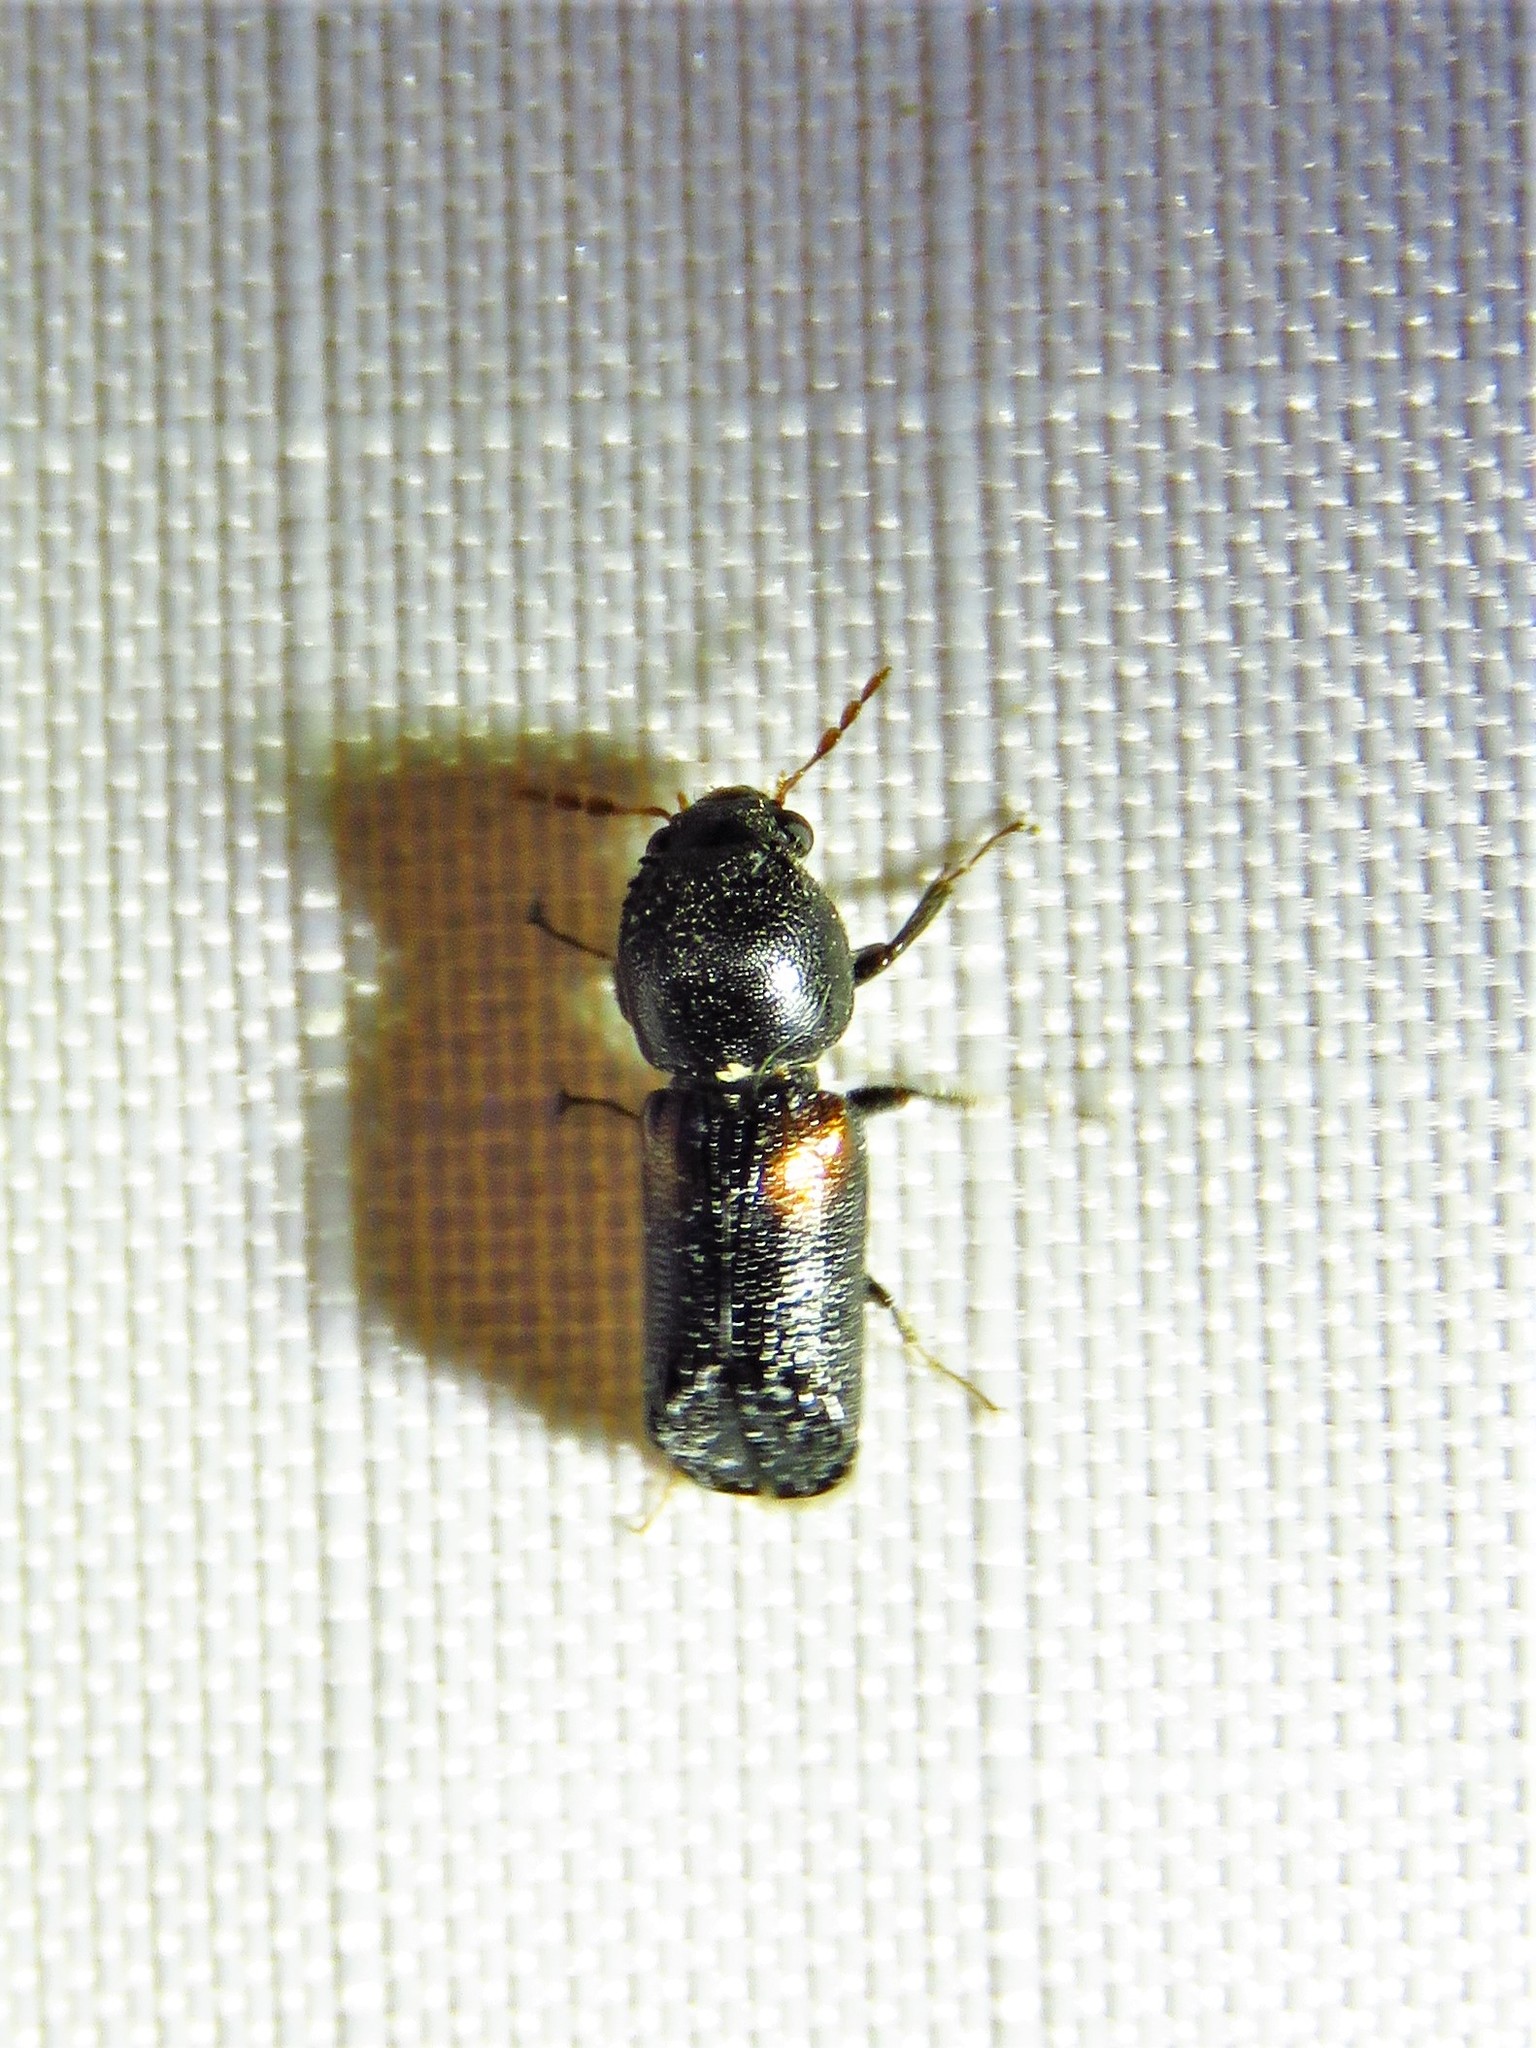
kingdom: Animalia
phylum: Arthropoda
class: Insecta
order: Coleoptera
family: Bostrichidae
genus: Xylobiops
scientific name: Xylobiops basilaris
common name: Red-shouldered bostrichid
